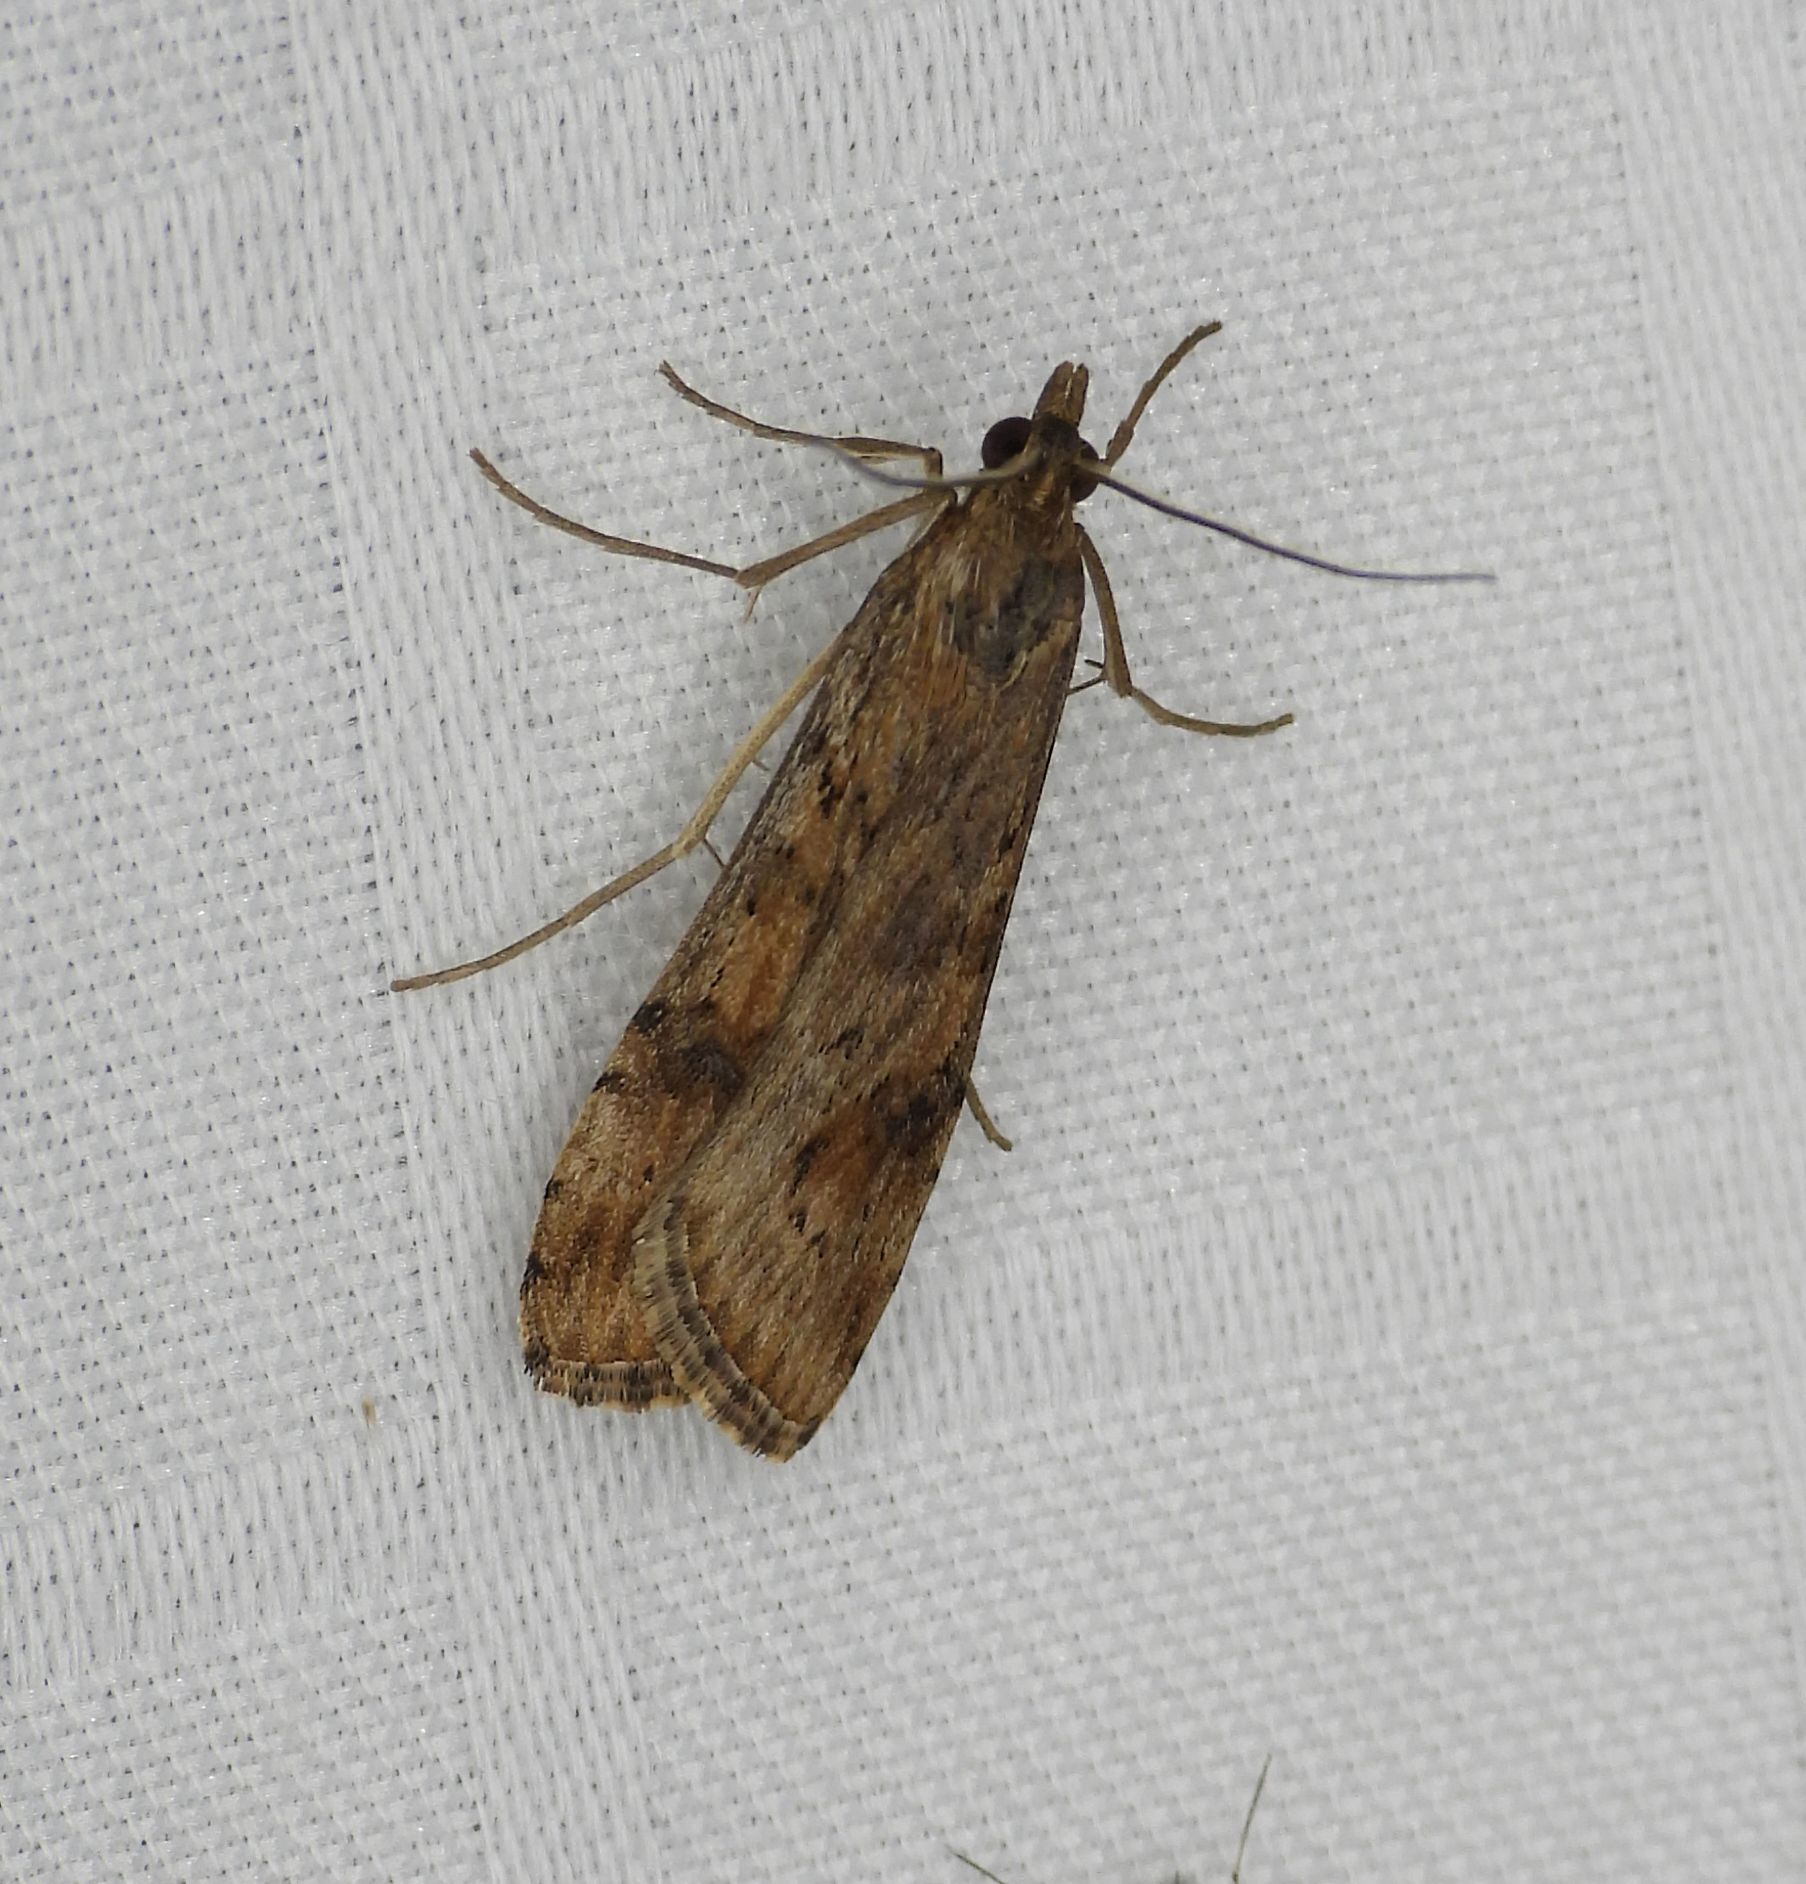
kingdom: Animalia
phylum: Arthropoda
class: Insecta
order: Lepidoptera
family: Crambidae
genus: Nomophila
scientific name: Nomophila nearctica
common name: American rush veneer
